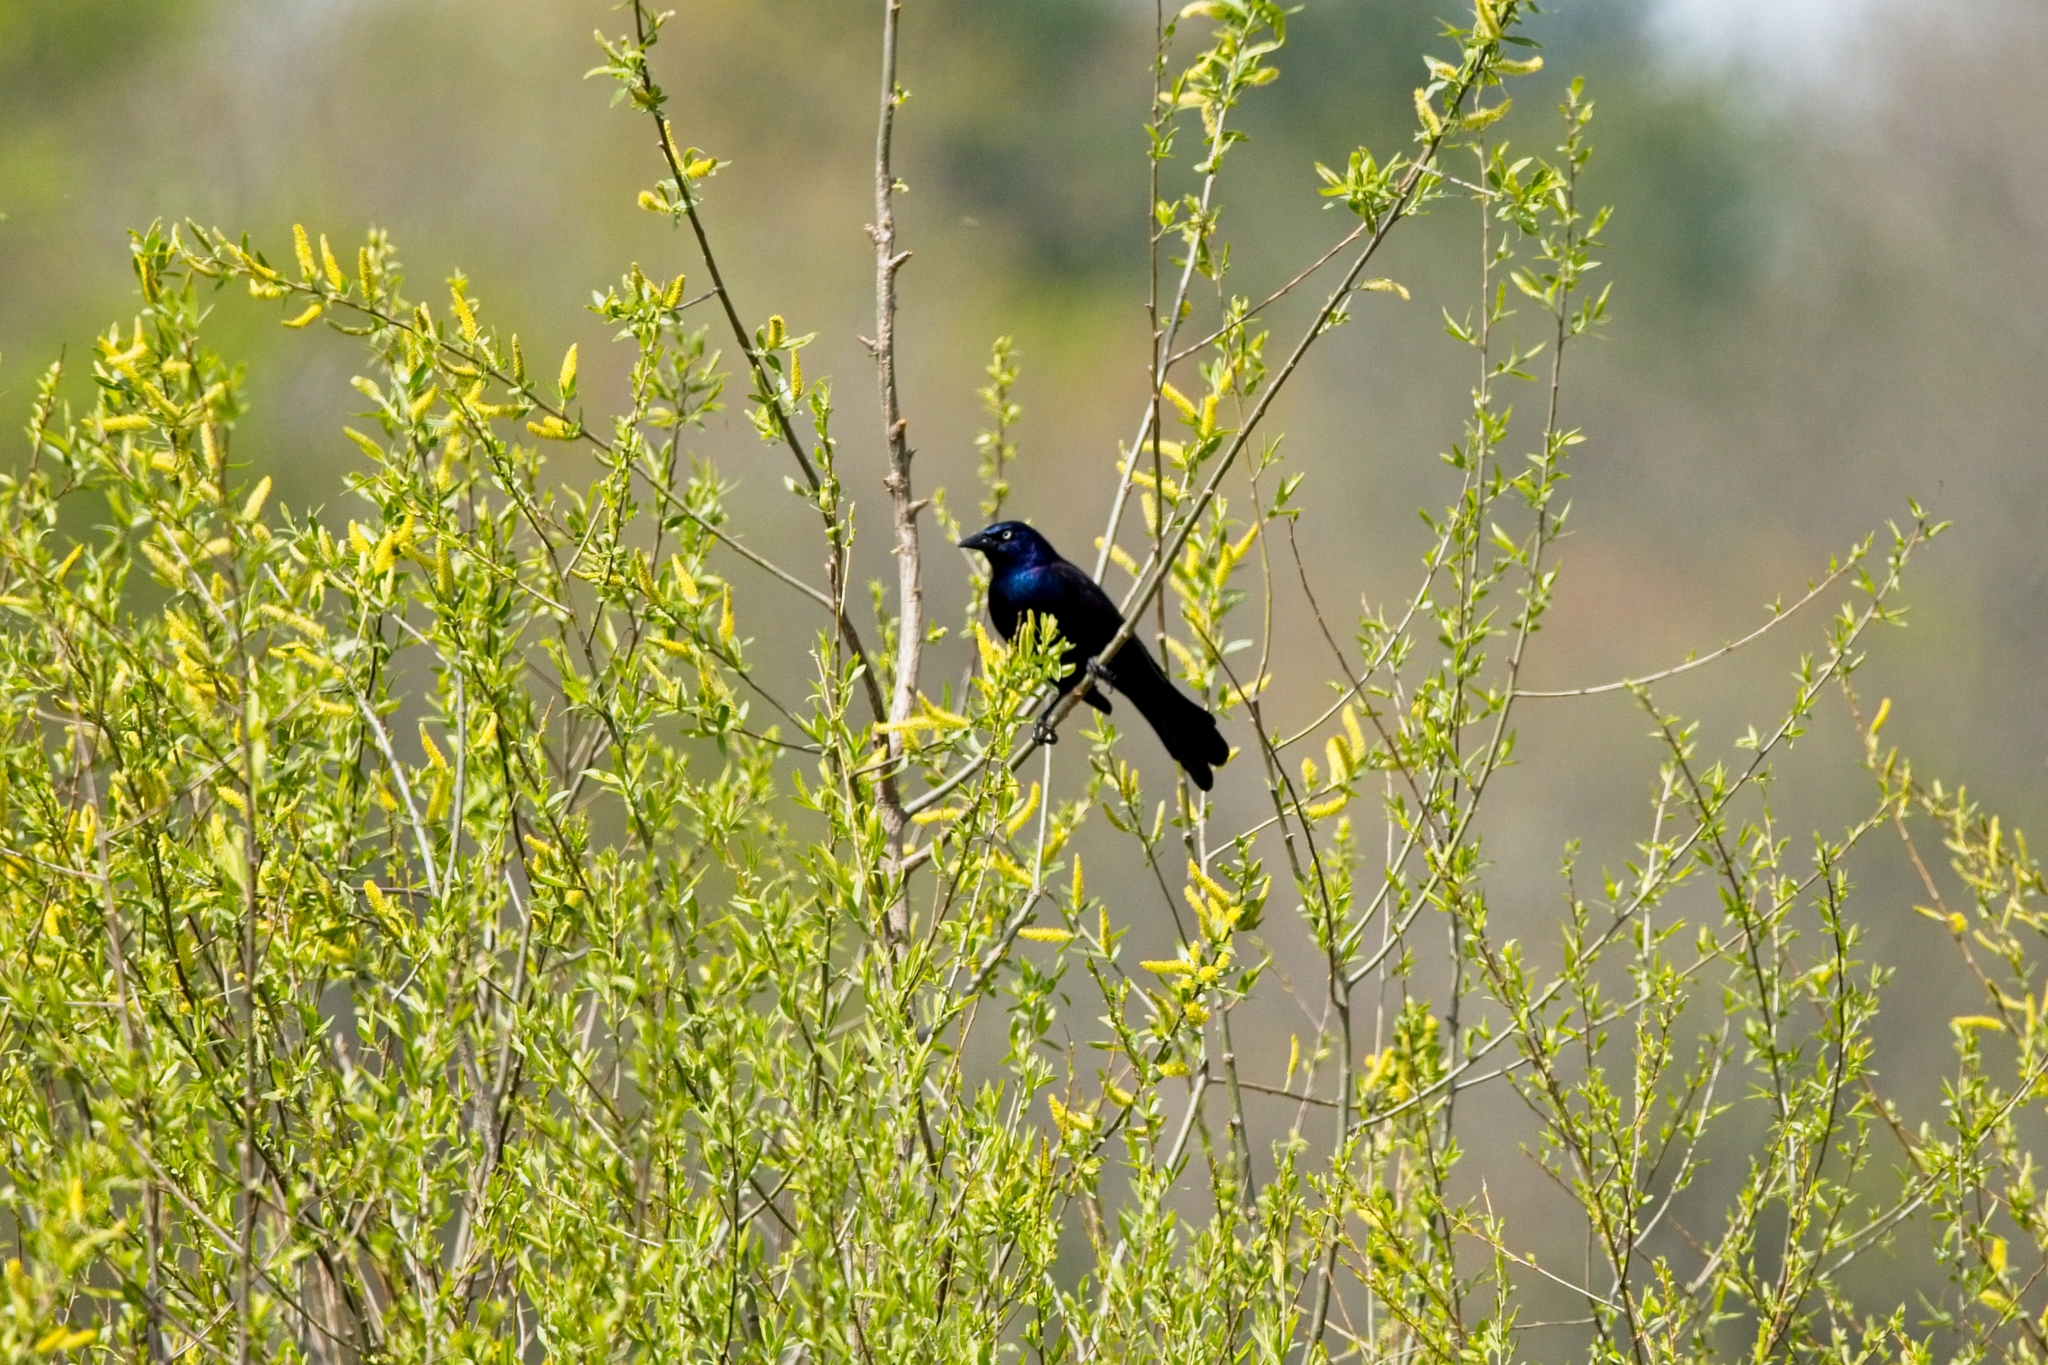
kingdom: Animalia
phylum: Chordata
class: Aves
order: Passeriformes
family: Icteridae
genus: Quiscalus
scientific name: Quiscalus quiscula
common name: Common grackle
